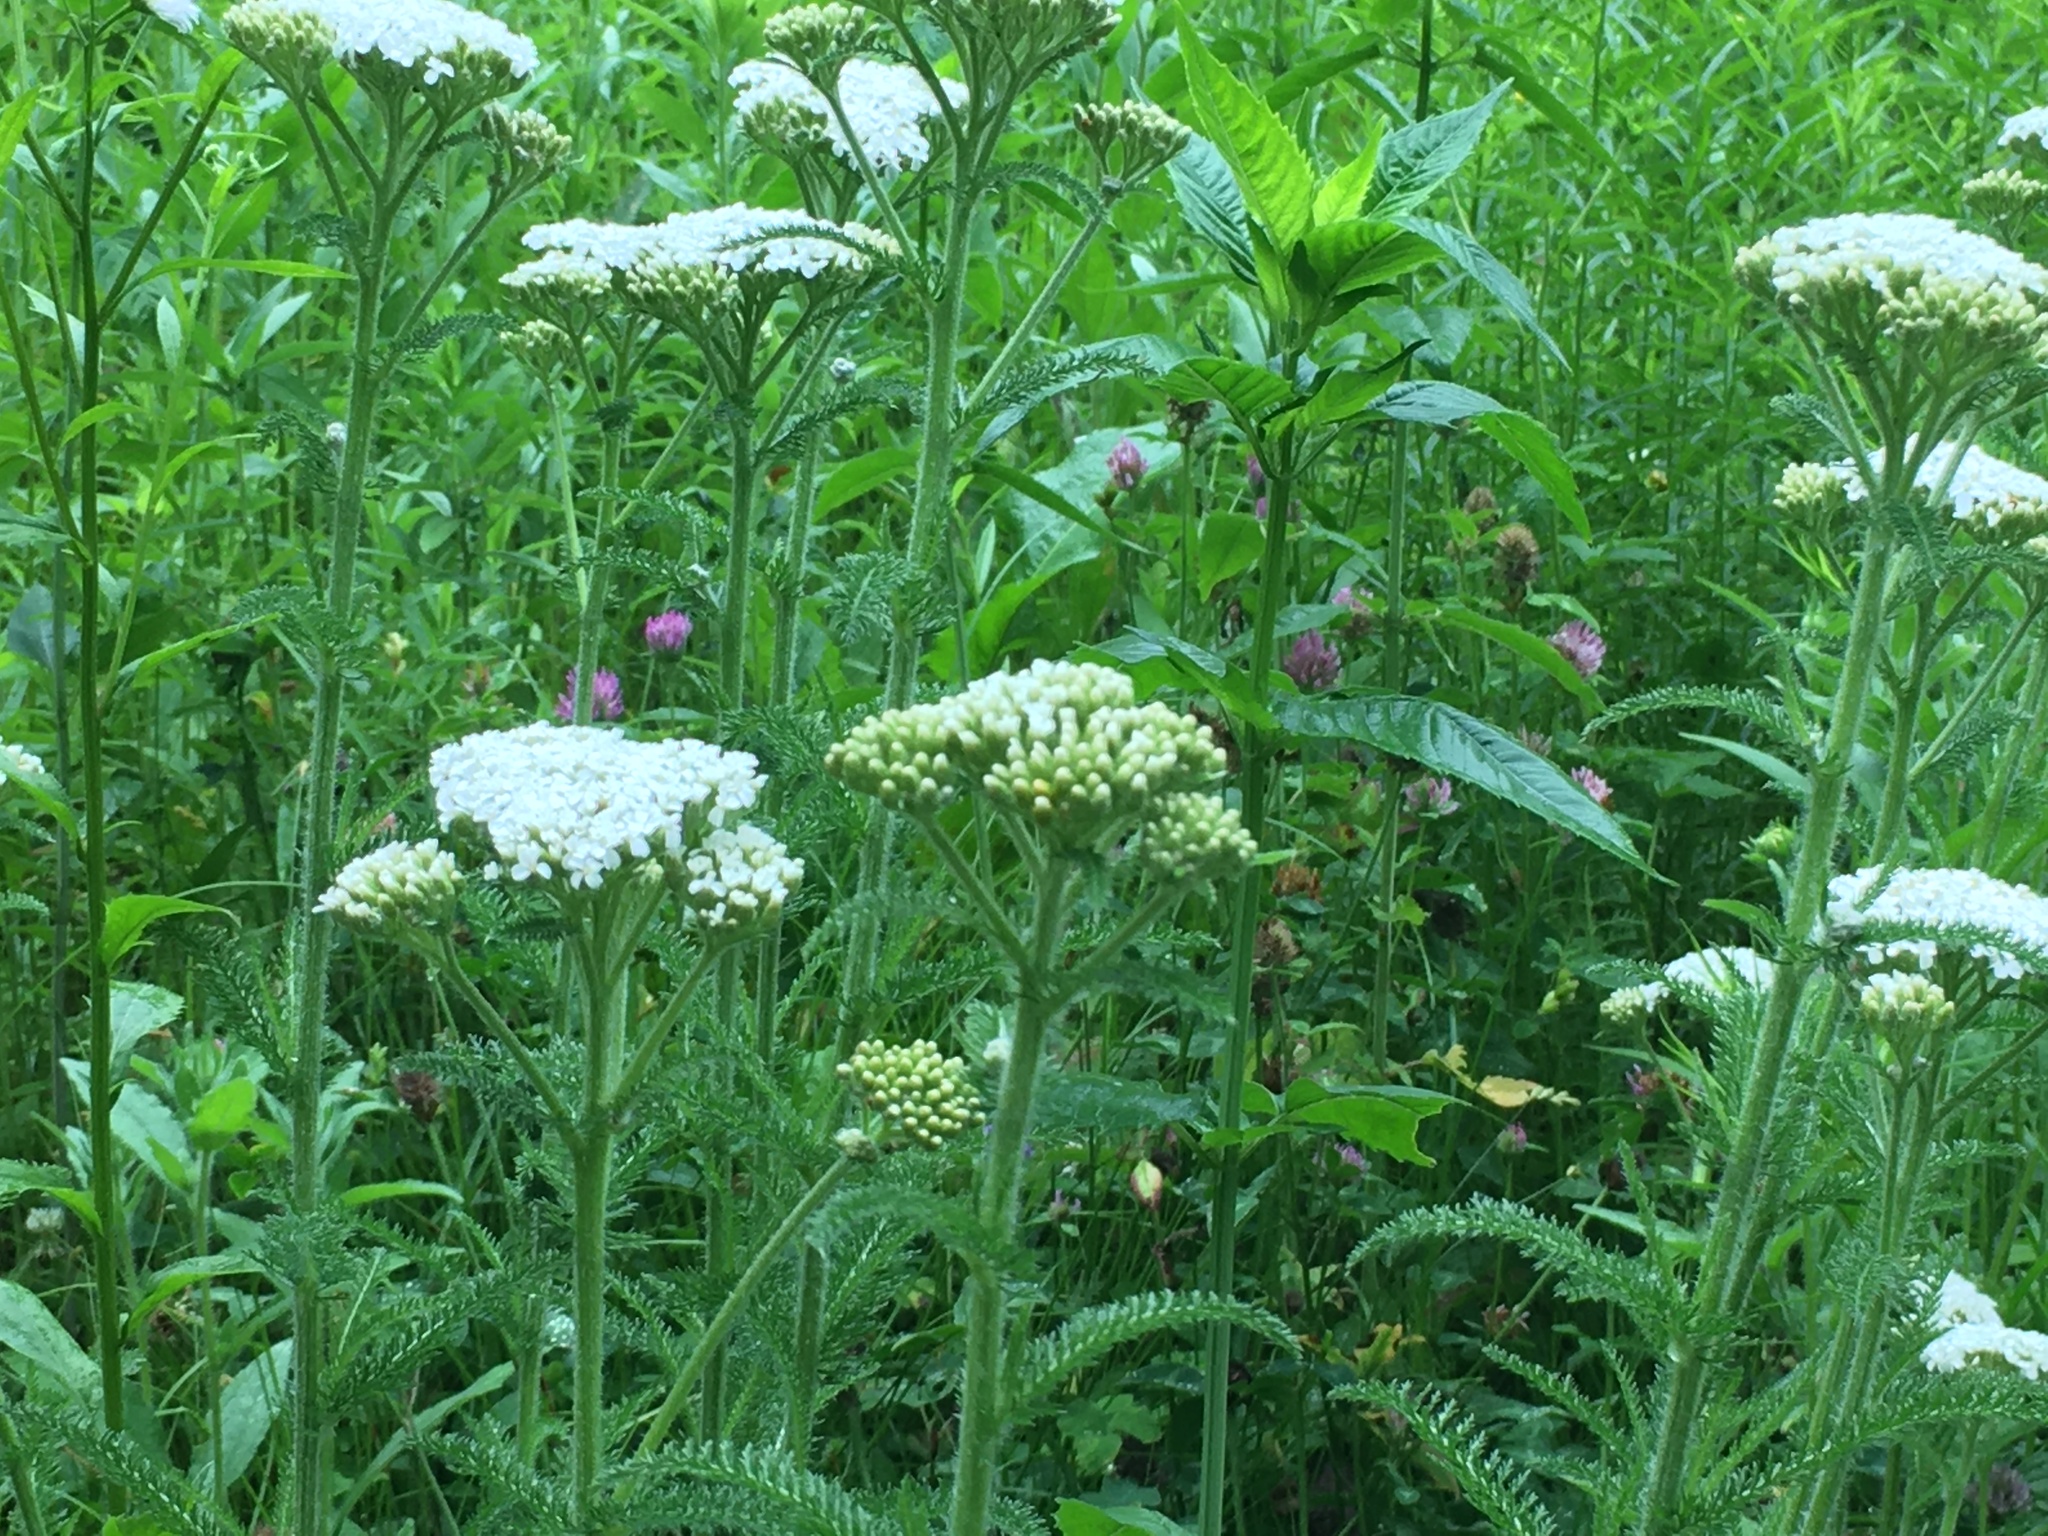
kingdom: Plantae
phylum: Tracheophyta
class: Magnoliopsida
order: Asterales
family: Asteraceae
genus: Achillea
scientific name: Achillea millefolium
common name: Yarrow
